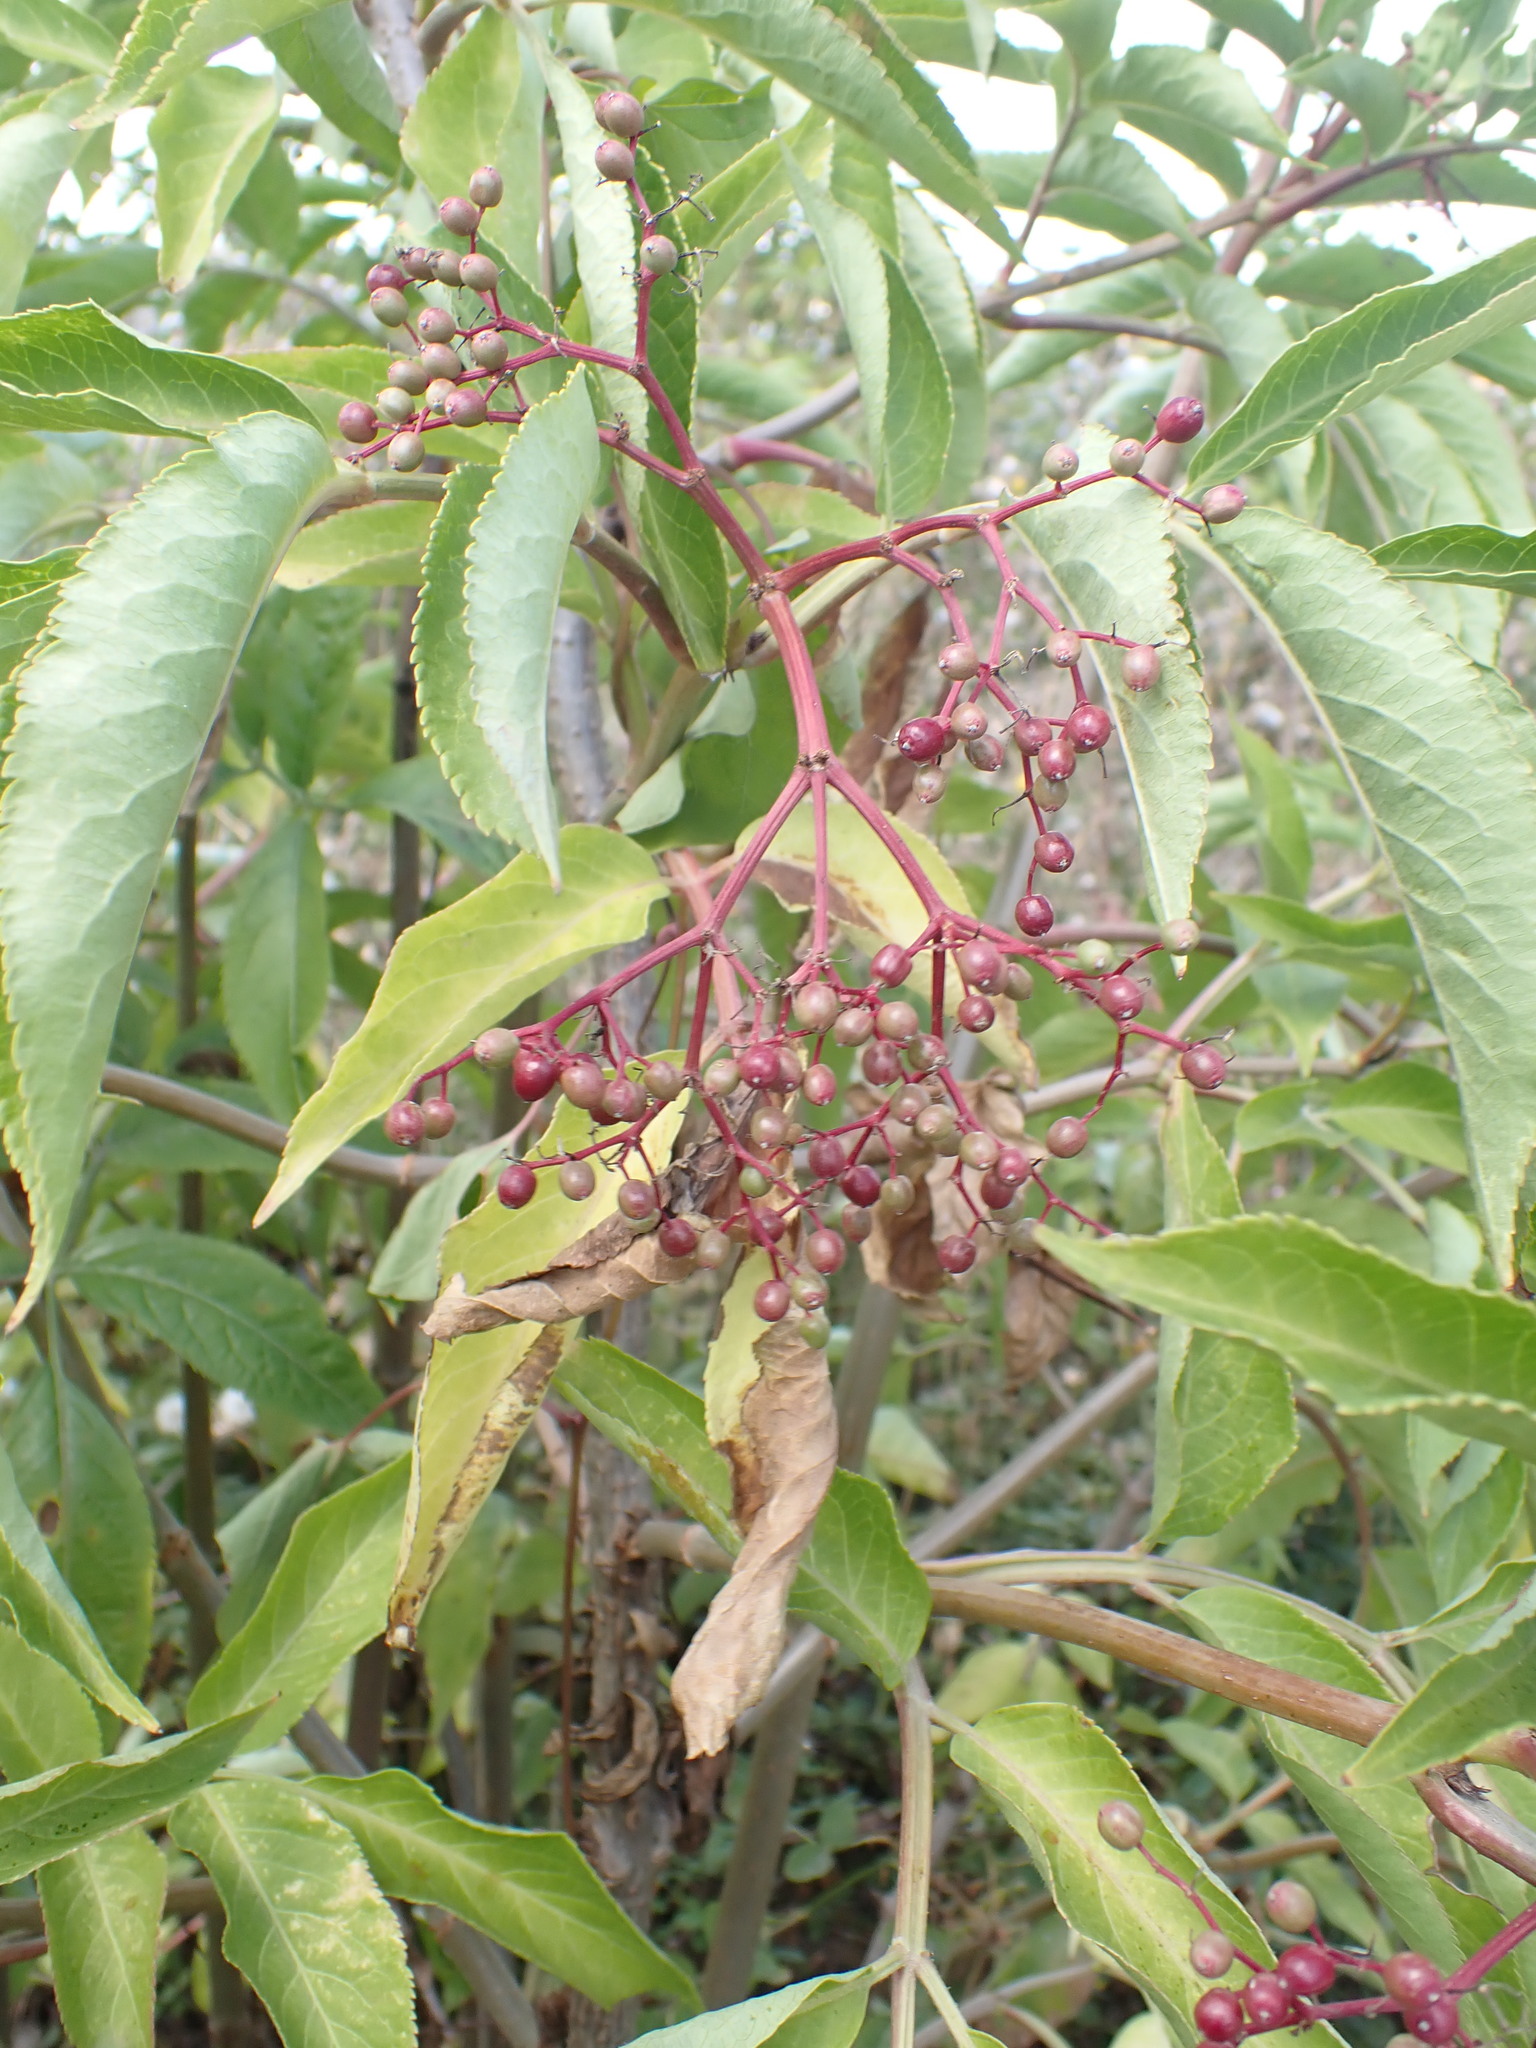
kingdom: Plantae
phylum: Tracheophyta
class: Magnoliopsida
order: Dipsacales
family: Viburnaceae
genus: Sambucus
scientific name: Sambucus nigra
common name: Elder
